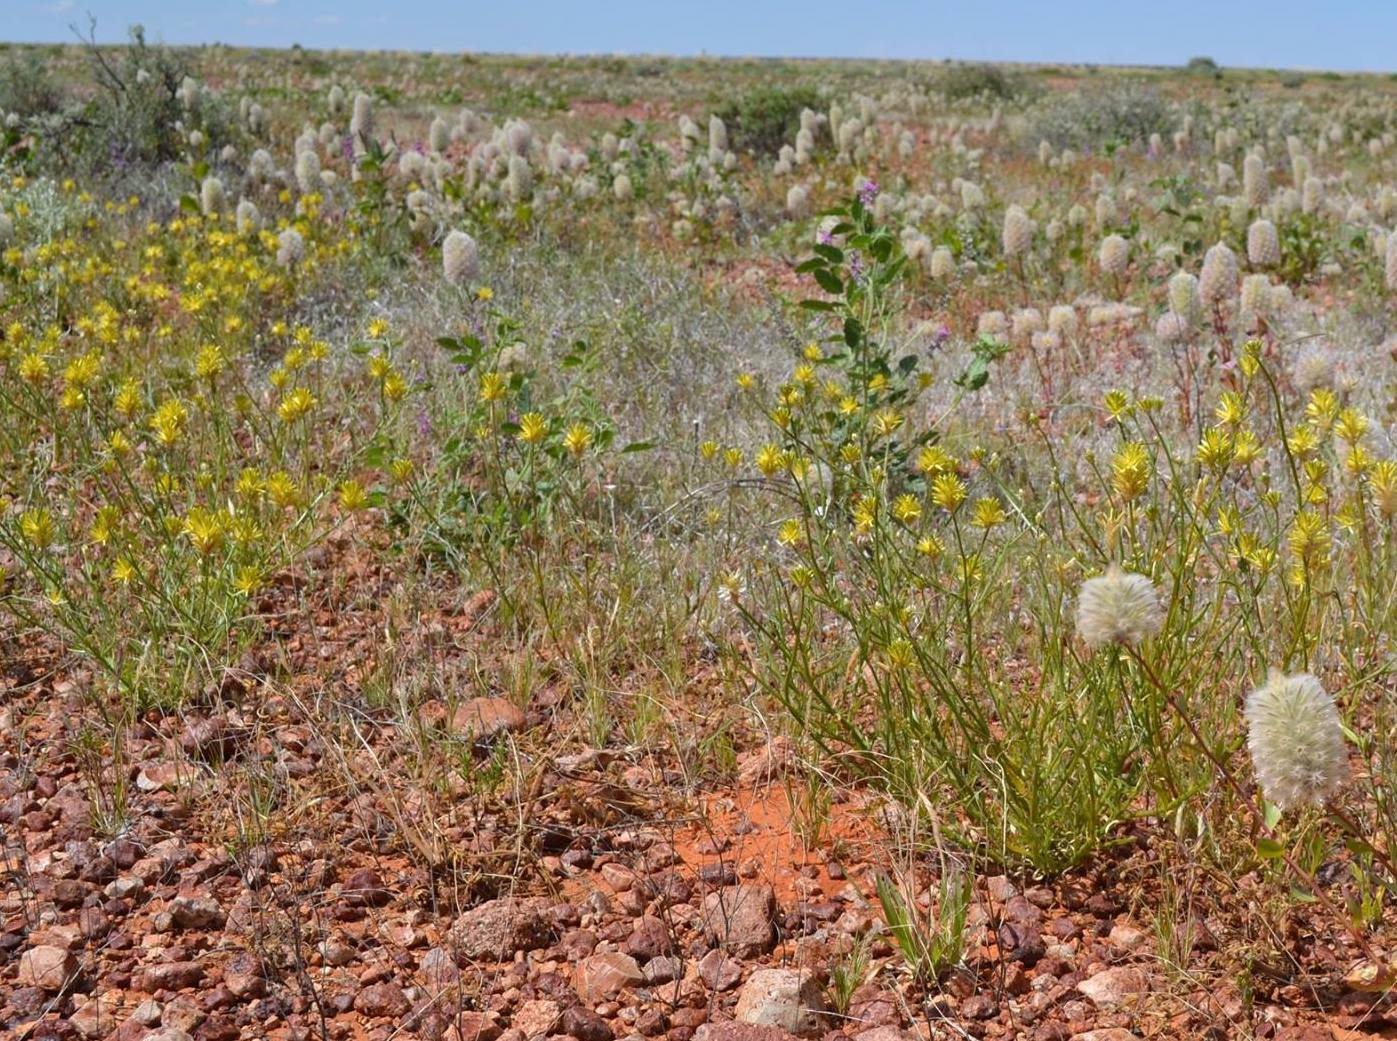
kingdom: Plantae
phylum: Tracheophyta
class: Magnoliopsida
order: Caryophyllales
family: Amaranthaceae
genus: Ptilotus
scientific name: Ptilotus gaudichaudii
